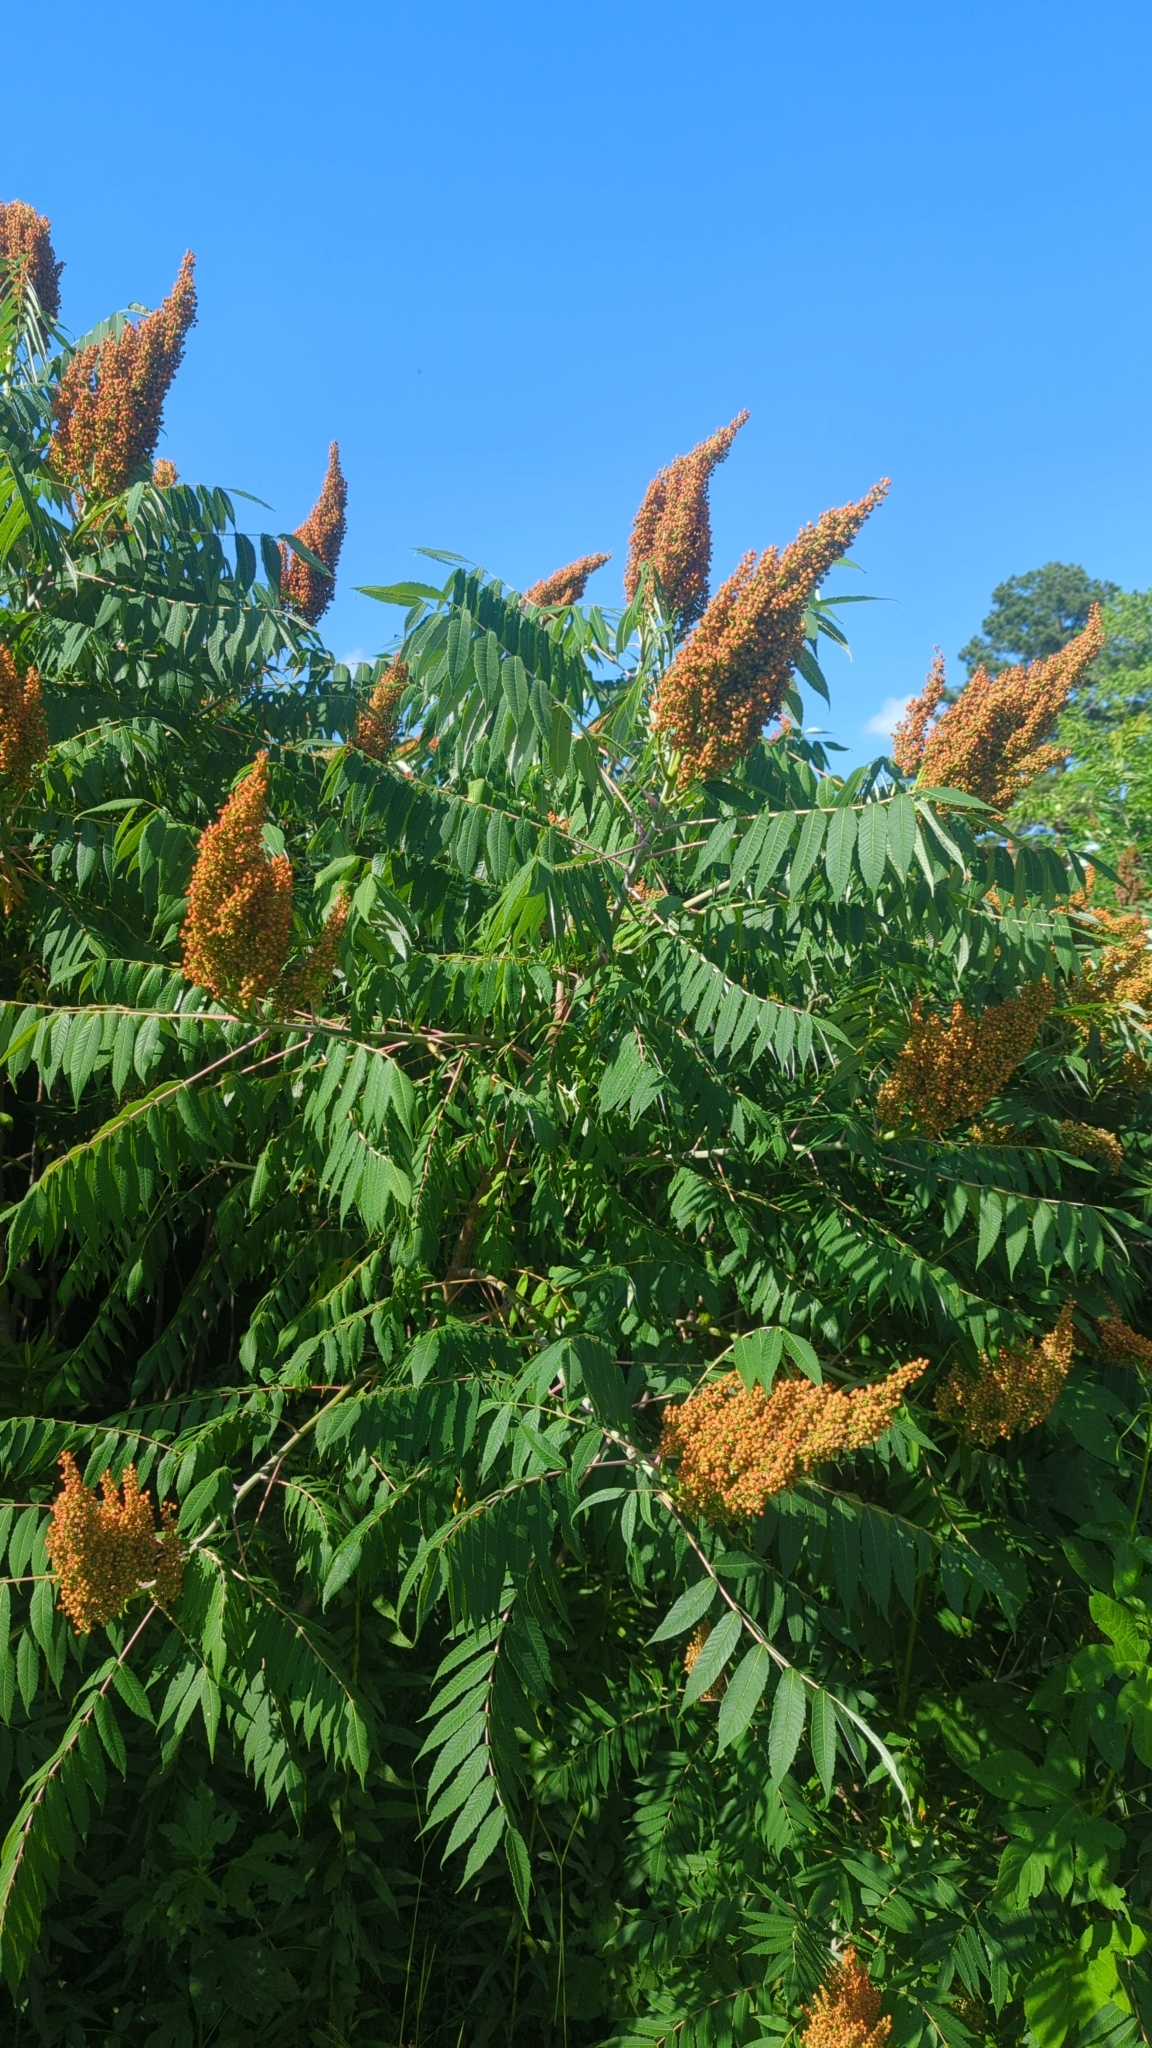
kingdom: Plantae
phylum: Tracheophyta
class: Magnoliopsida
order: Sapindales
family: Anacardiaceae
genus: Rhus
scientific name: Rhus glabra
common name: Scarlet sumac
